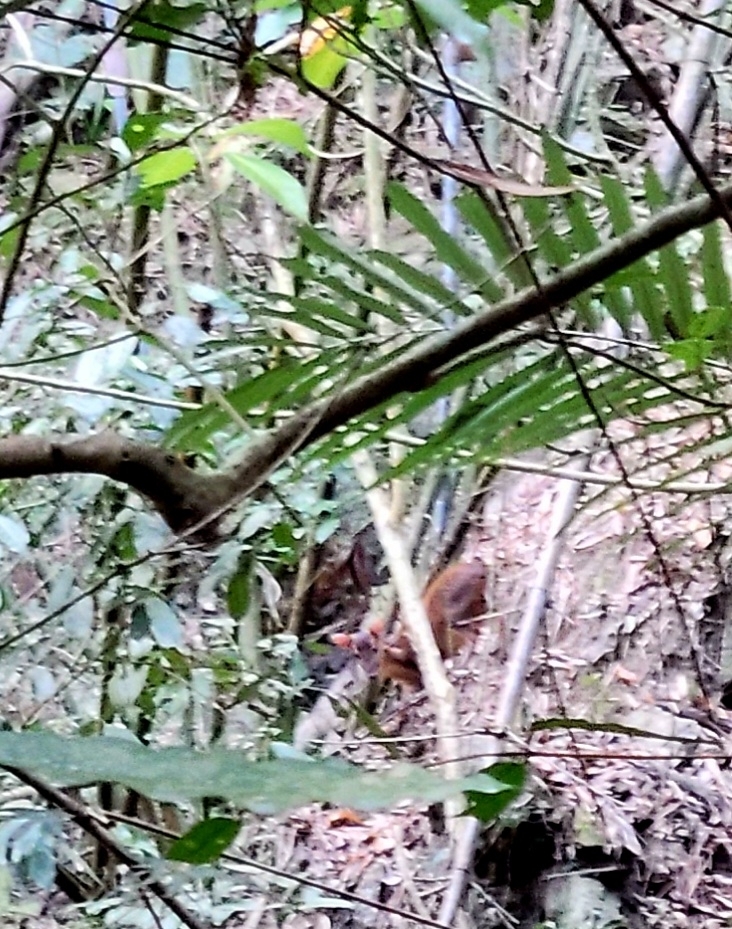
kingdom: Animalia
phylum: Chordata
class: Mammalia
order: Artiodactyla
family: Cervidae
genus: Muntiacus
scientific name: Muntiacus reevesi
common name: Reeves' muntjac
